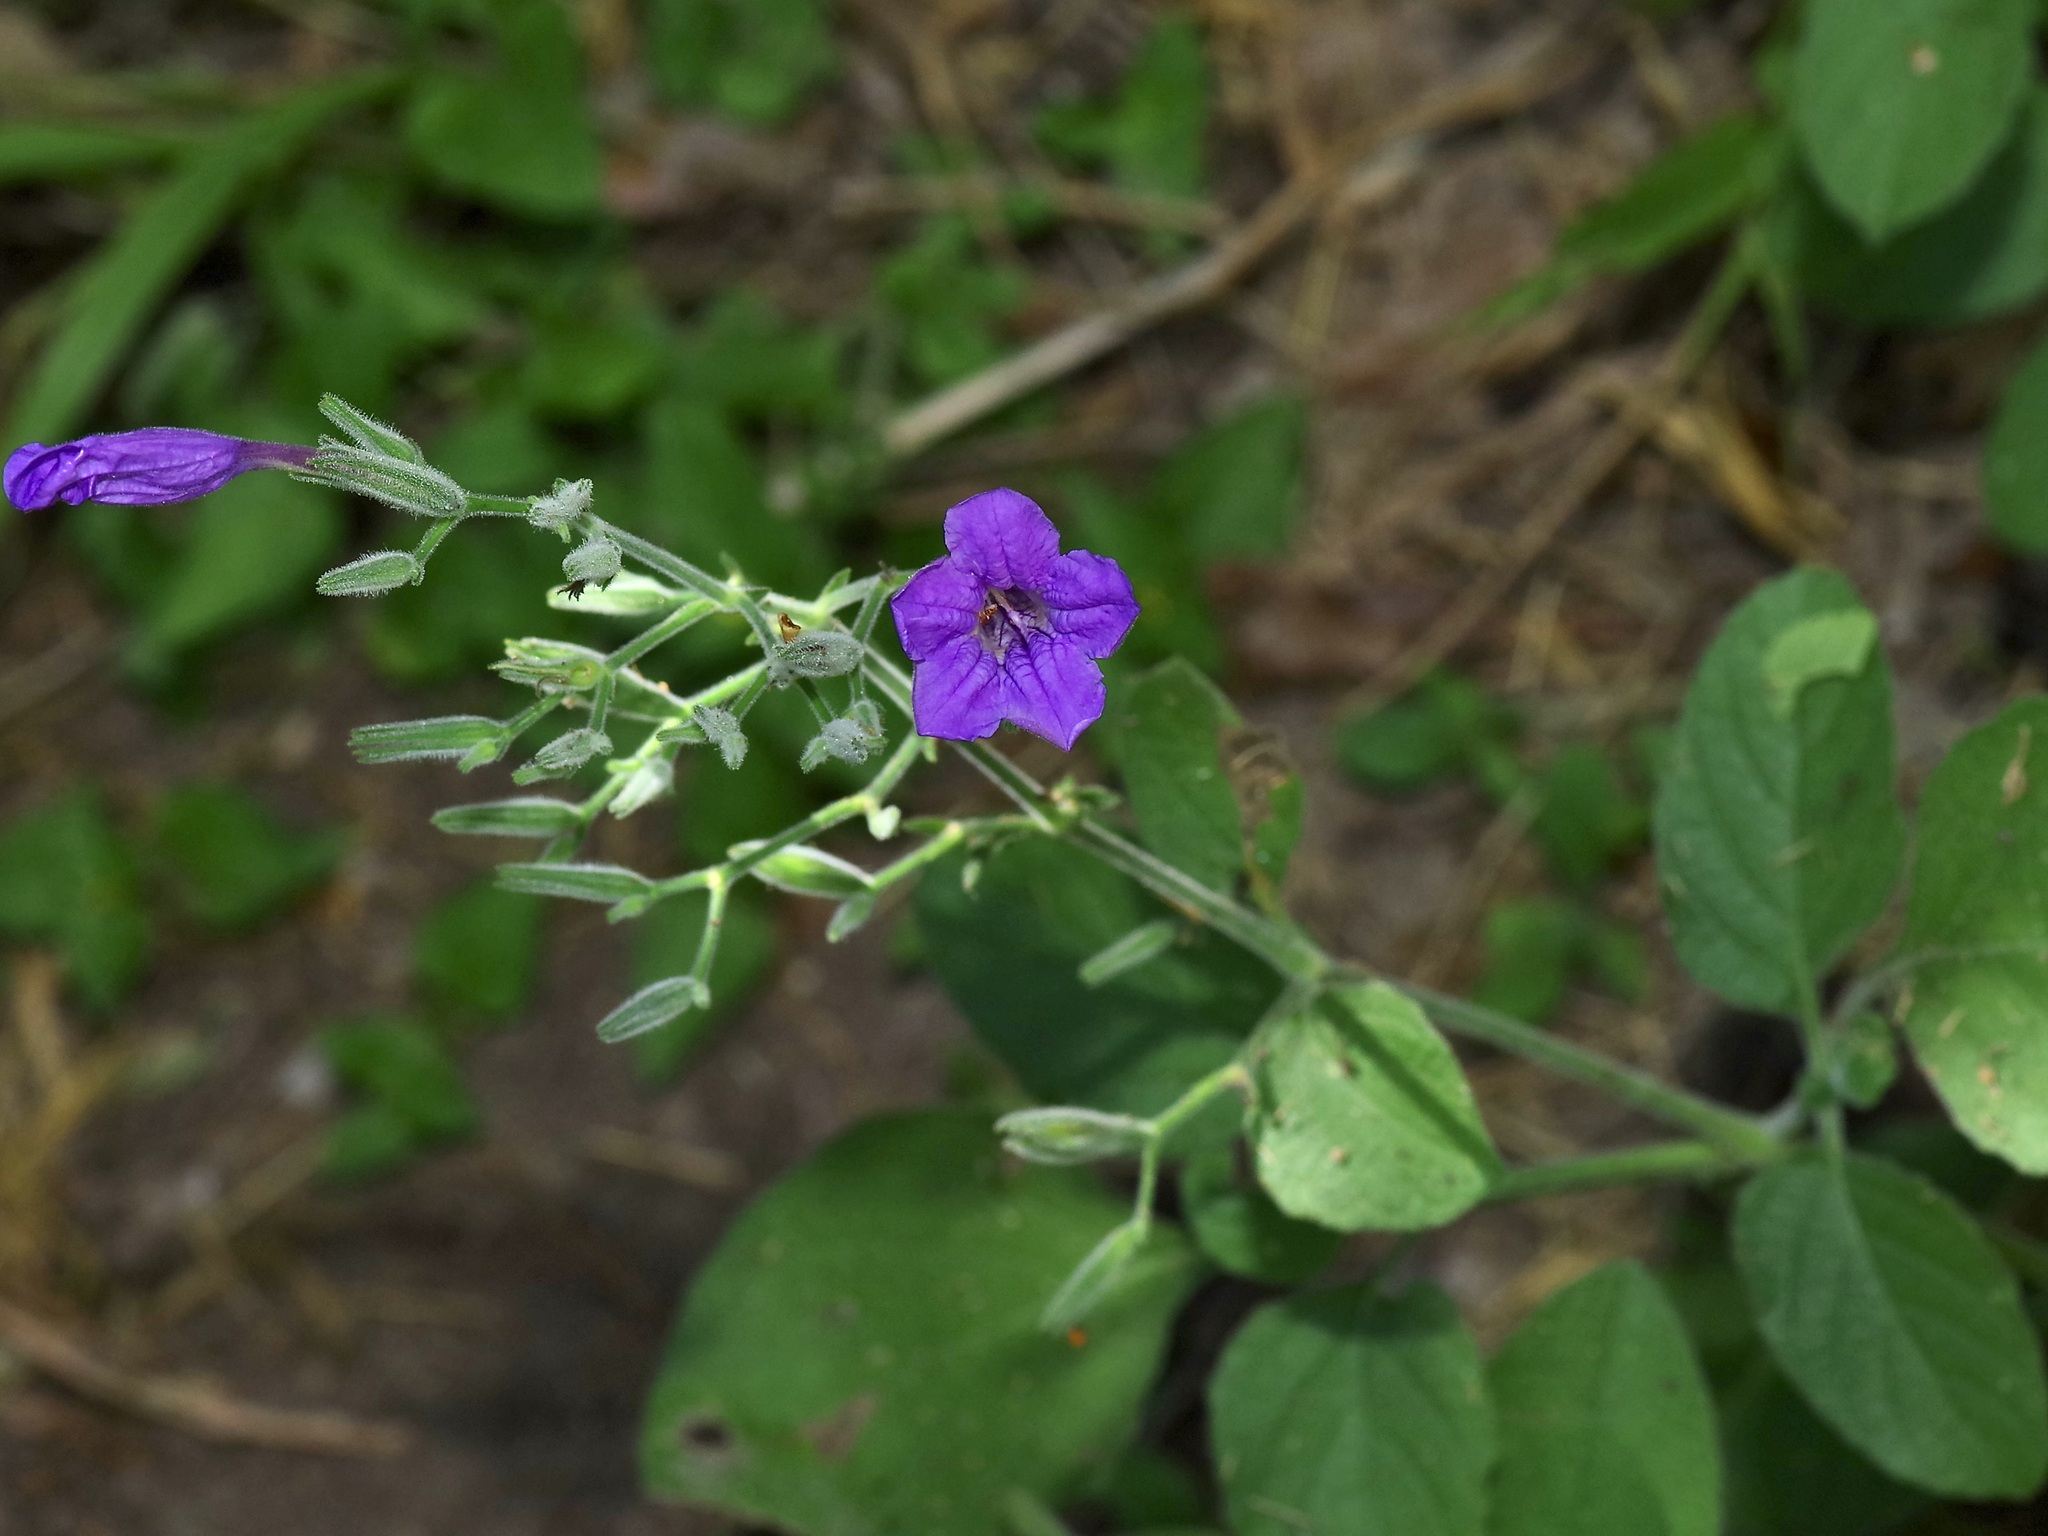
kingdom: Plantae
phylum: Tracheophyta
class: Magnoliopsida
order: Lamiales
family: Acanthaceae
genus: Ruellia
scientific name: Ruellia ciliatiflora
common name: Hairyflower wild petunia
